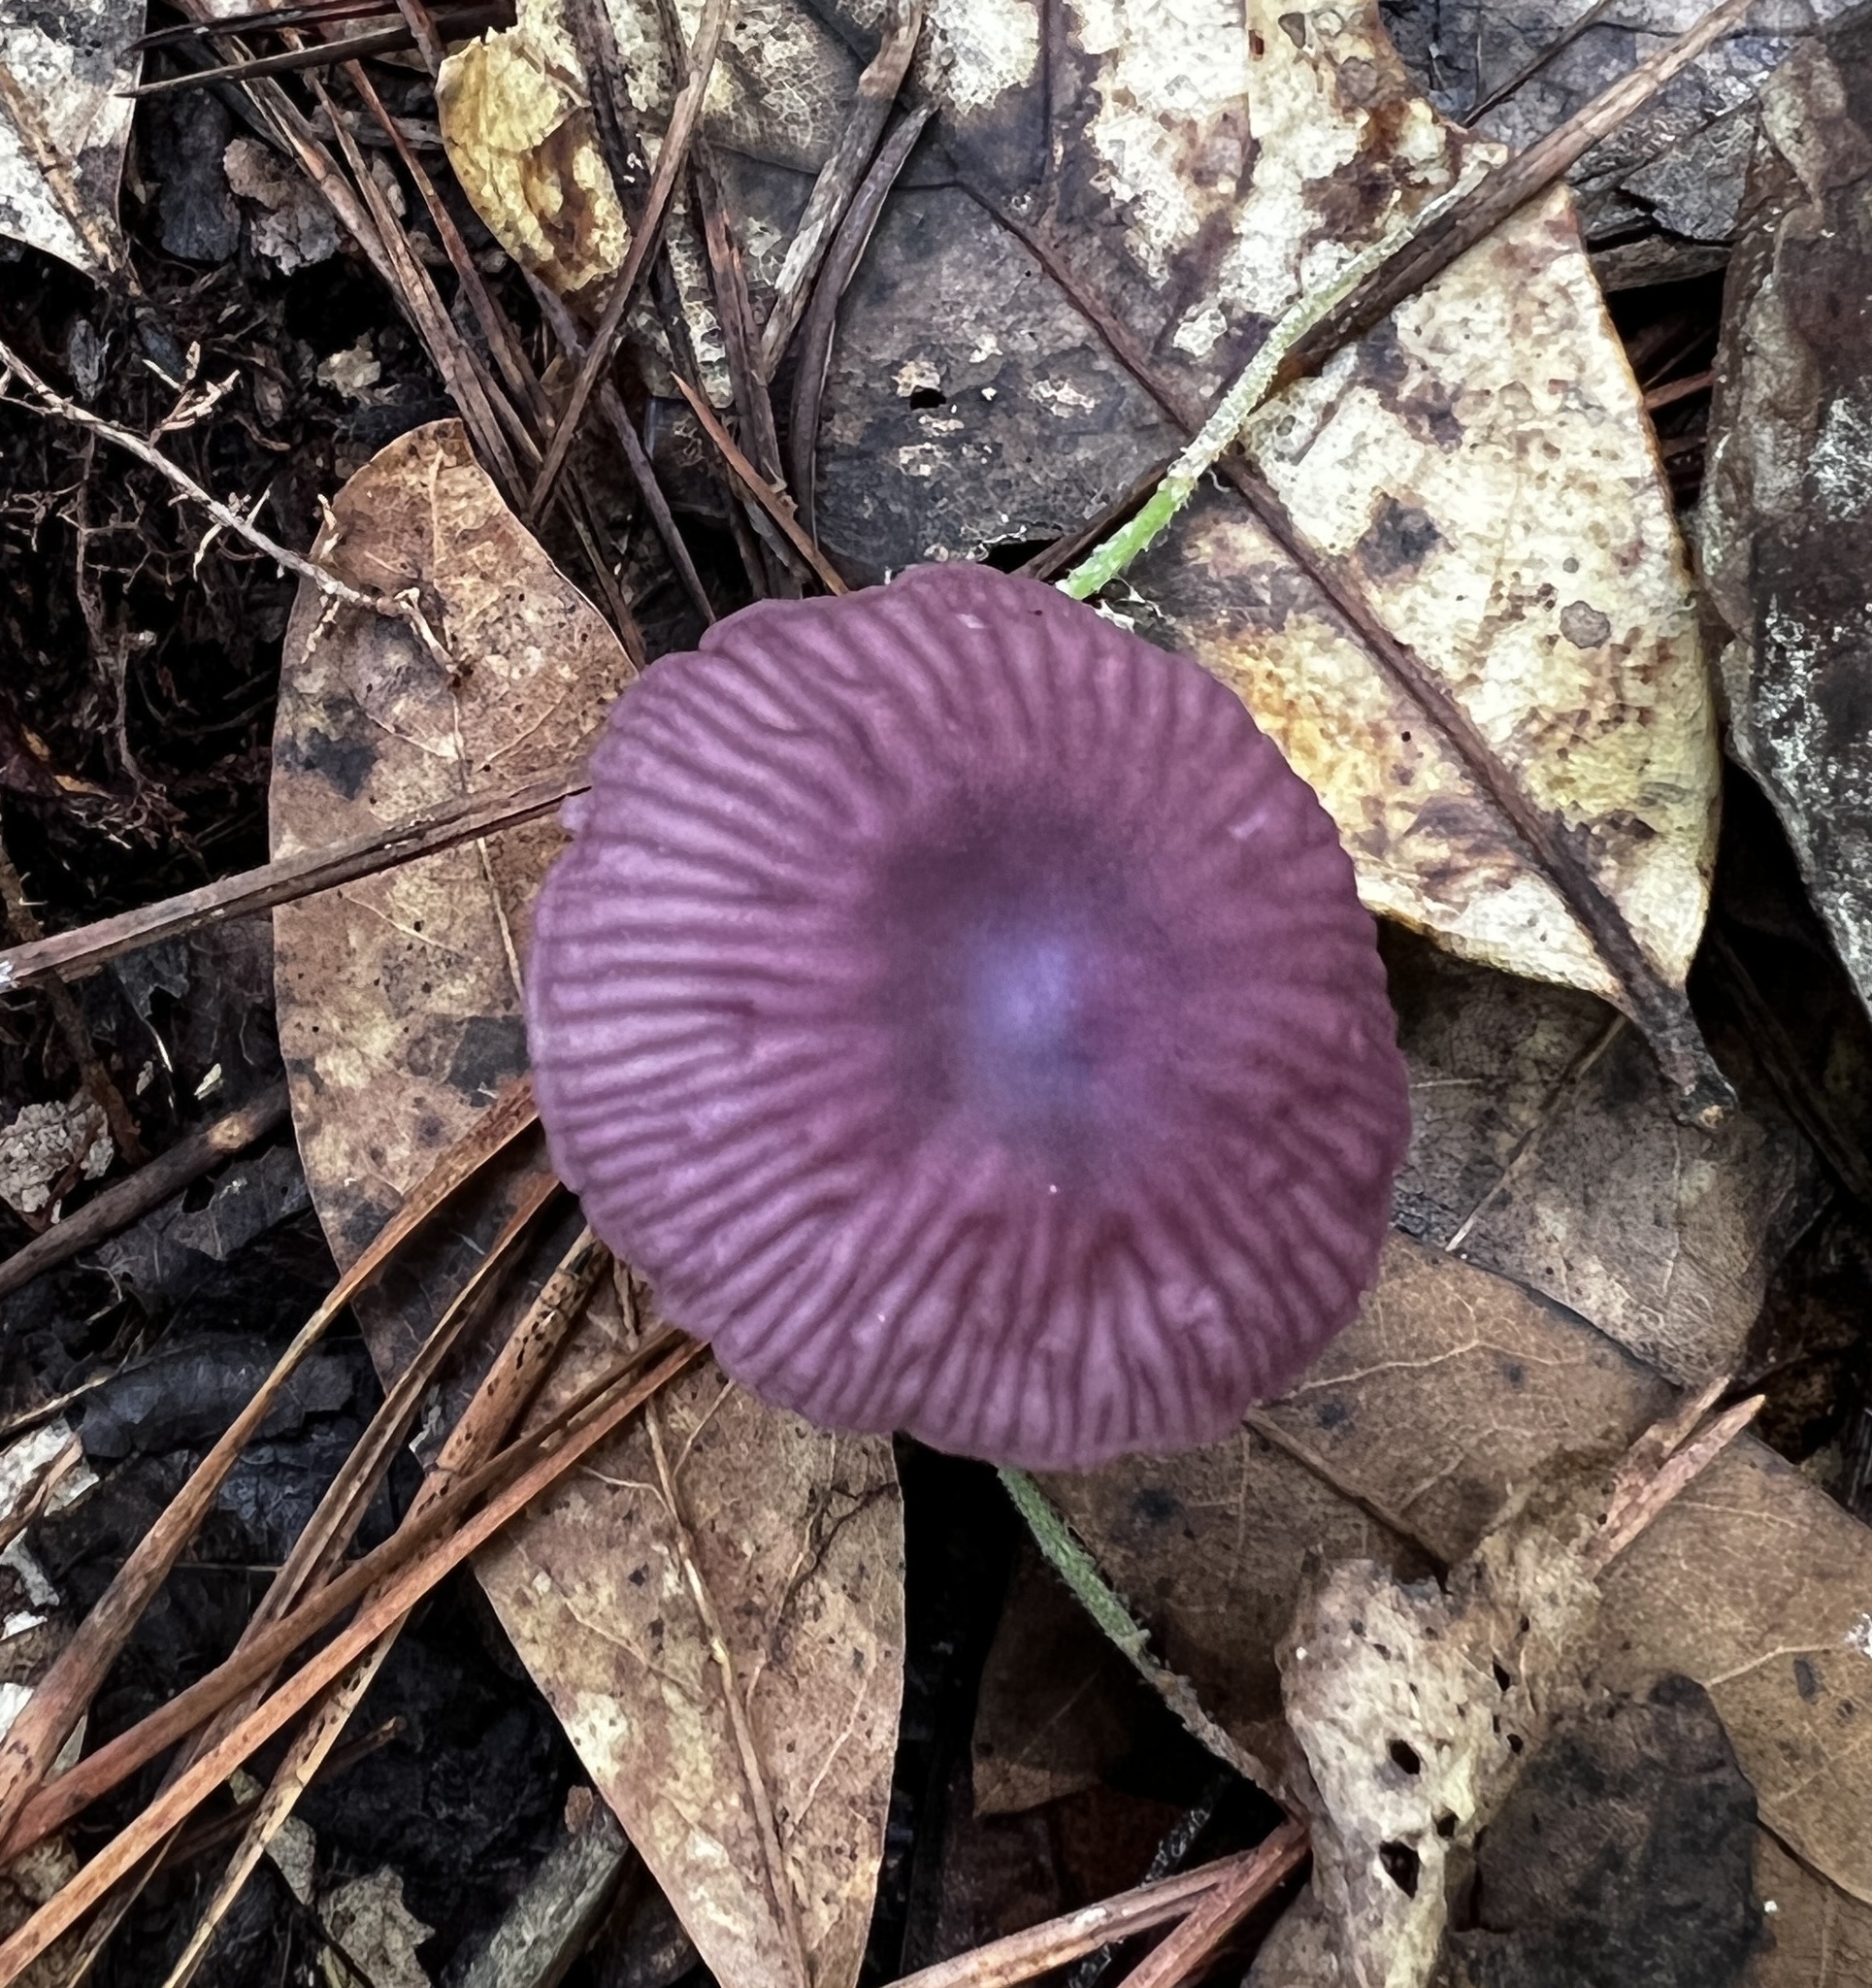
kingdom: Fungi
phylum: Basidiomycota
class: Agaricomycetes
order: Agaricales
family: Omphalotaceae
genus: Gymnopus
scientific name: Gymnopus iocephalus
